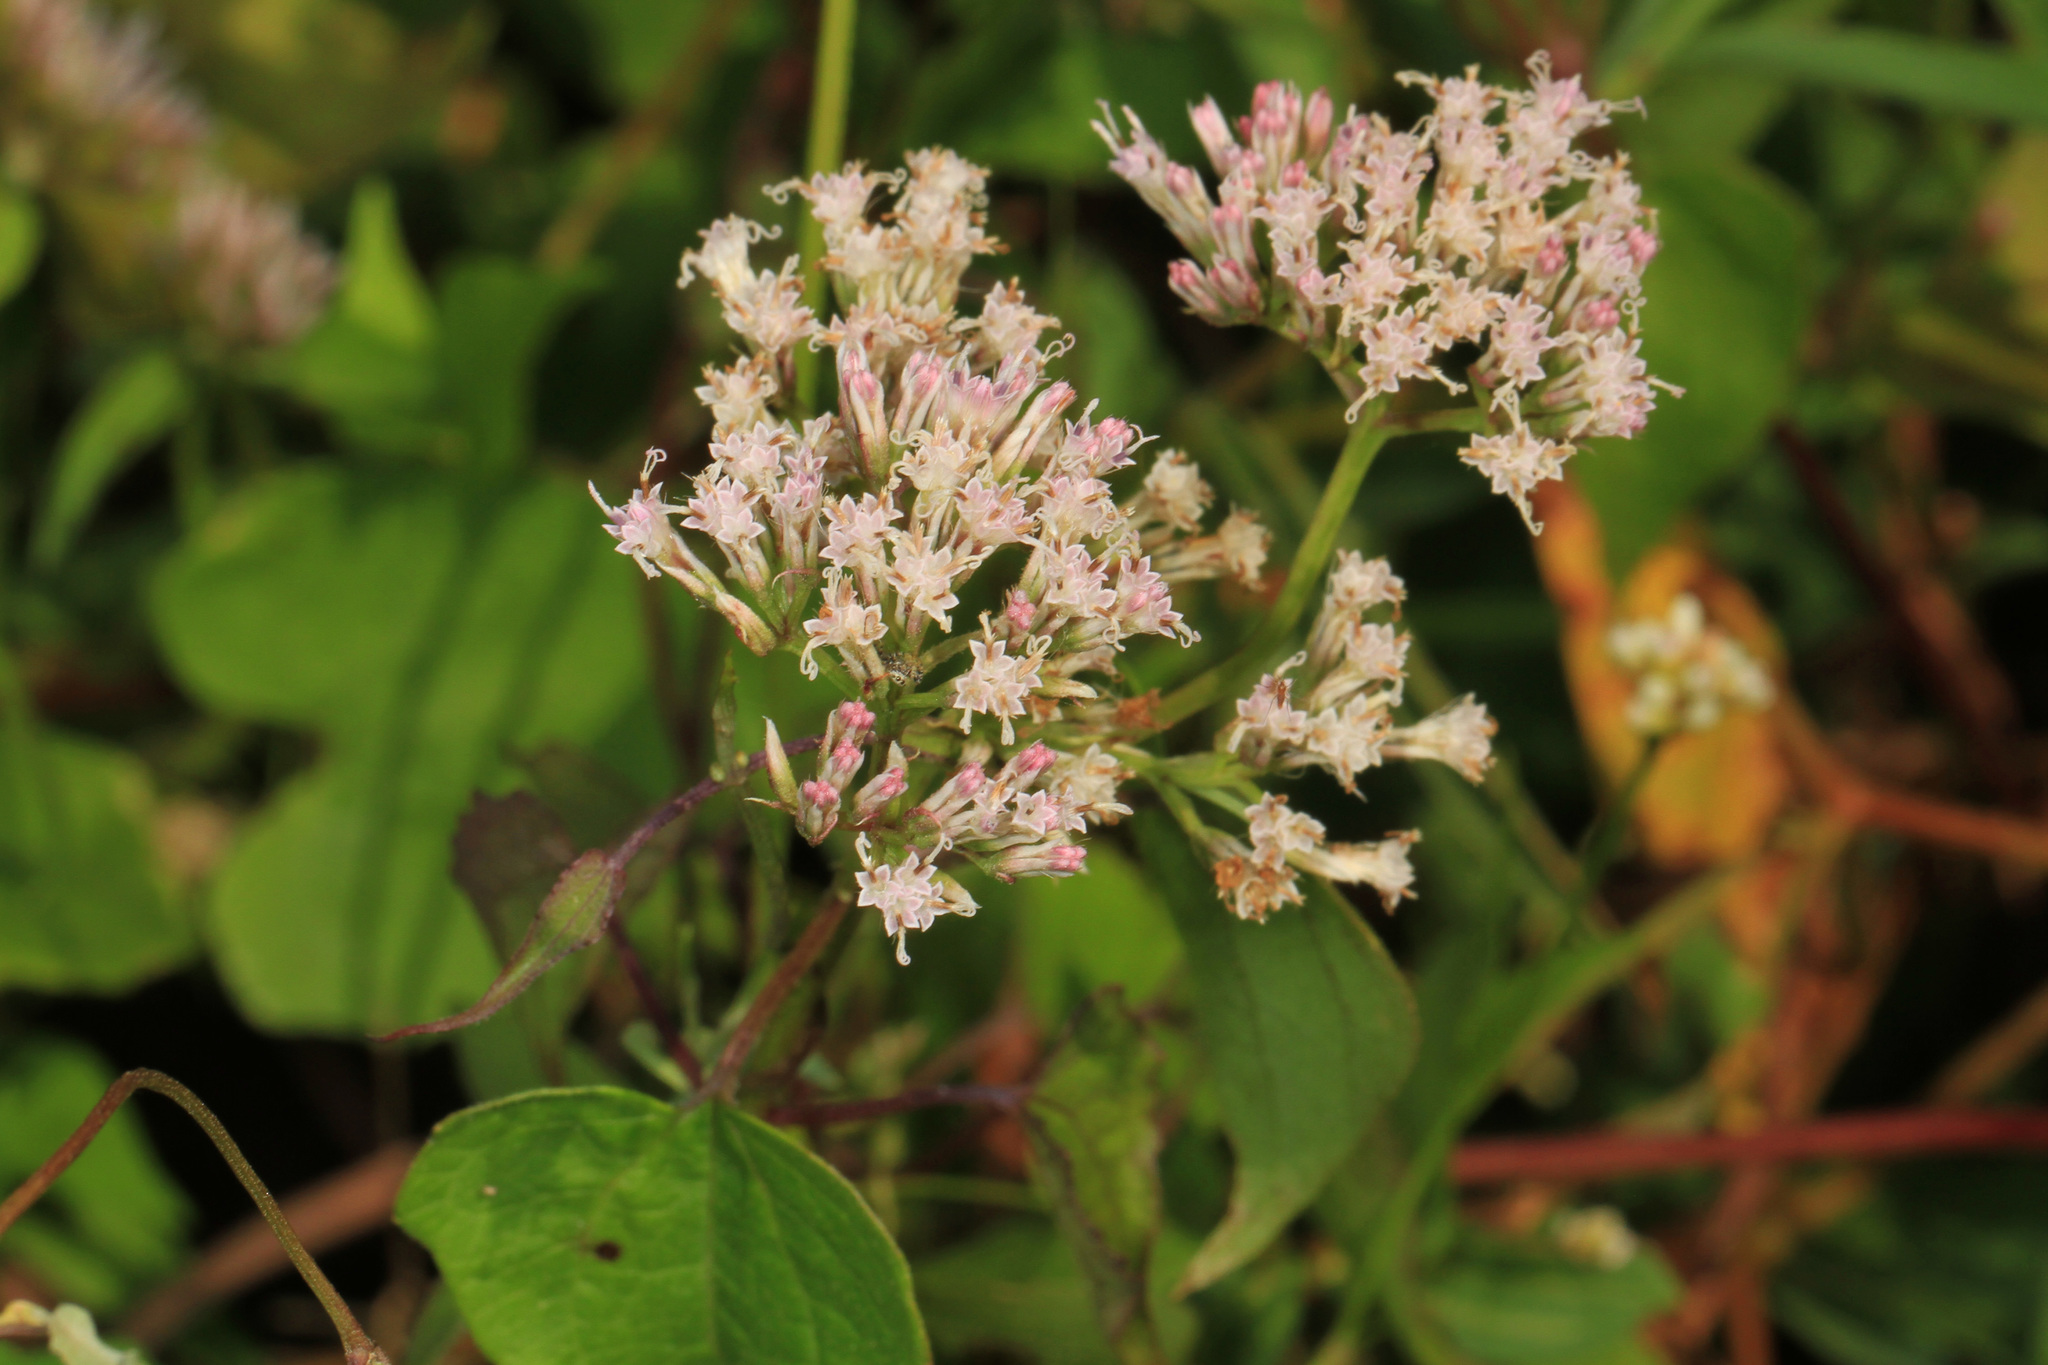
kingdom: Plantae
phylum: Tracheophyta
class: Magnoliopsida
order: Asterales
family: Asteraceae
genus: Mikania
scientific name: Mikania scandens
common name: Climbing hempvine
